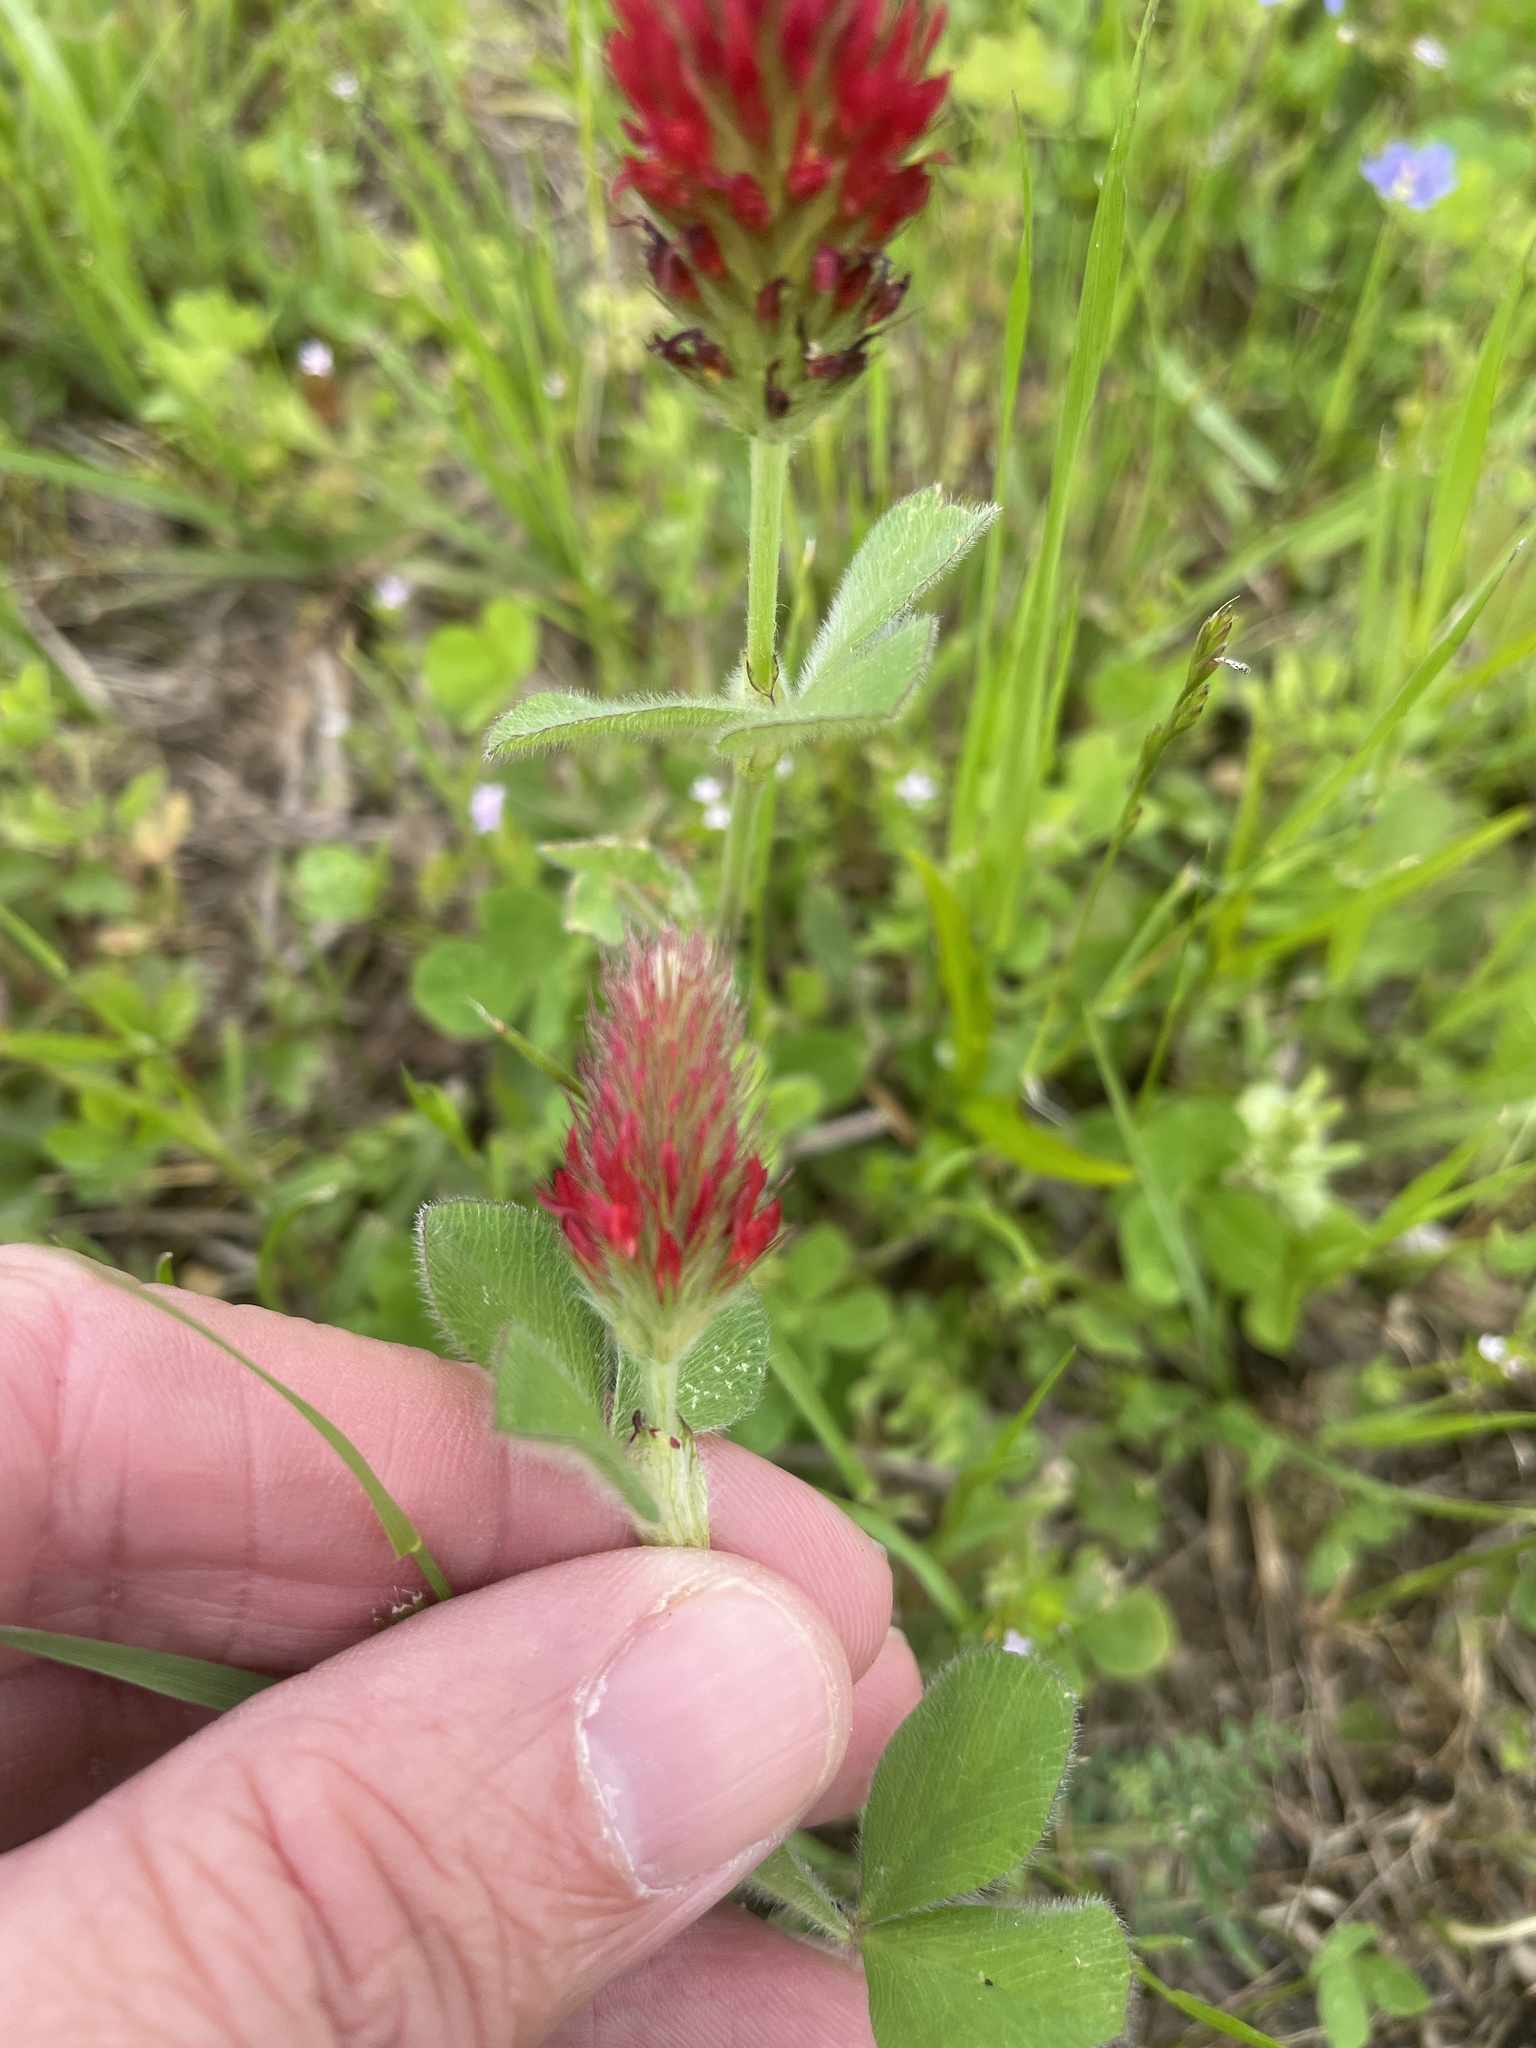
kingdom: Plantae
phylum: Tracheophyta
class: Magnoliopsida
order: Fabales
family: Fabaceae
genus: Trifolium
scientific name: Trifolium incarnatum
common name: Crimson clover
